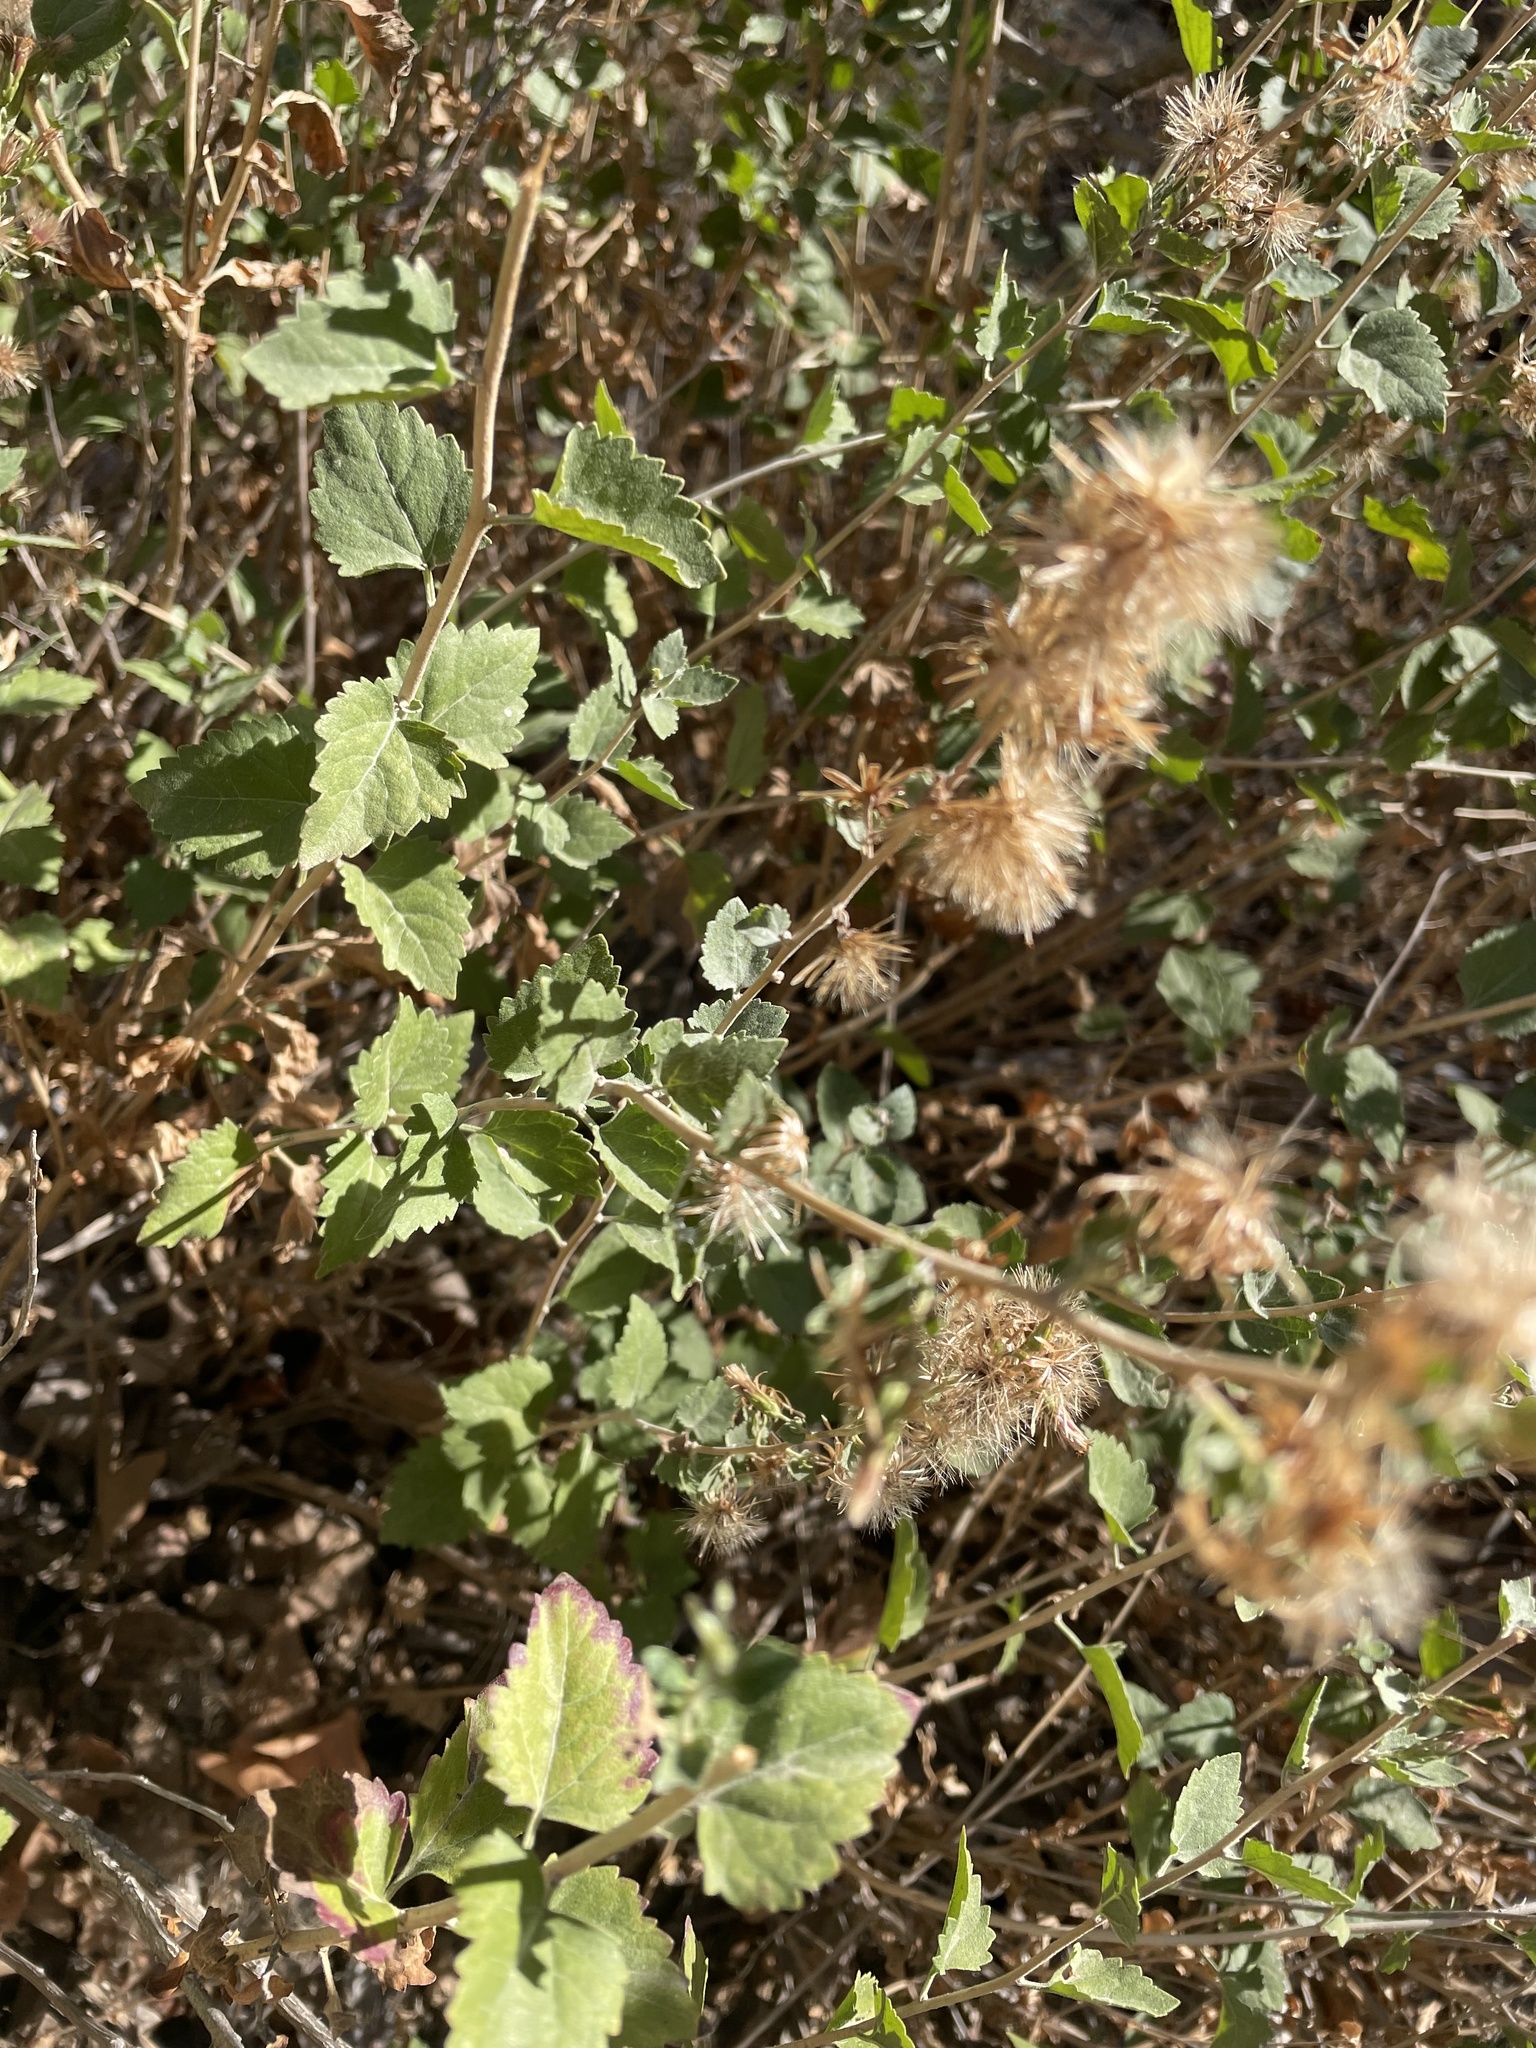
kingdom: Plantae
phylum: Tracheophyta
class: Magnoliopsida
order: Asterales
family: Asteraceae
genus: Brickellia
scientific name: Brickellia californica
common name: California brickellbush
